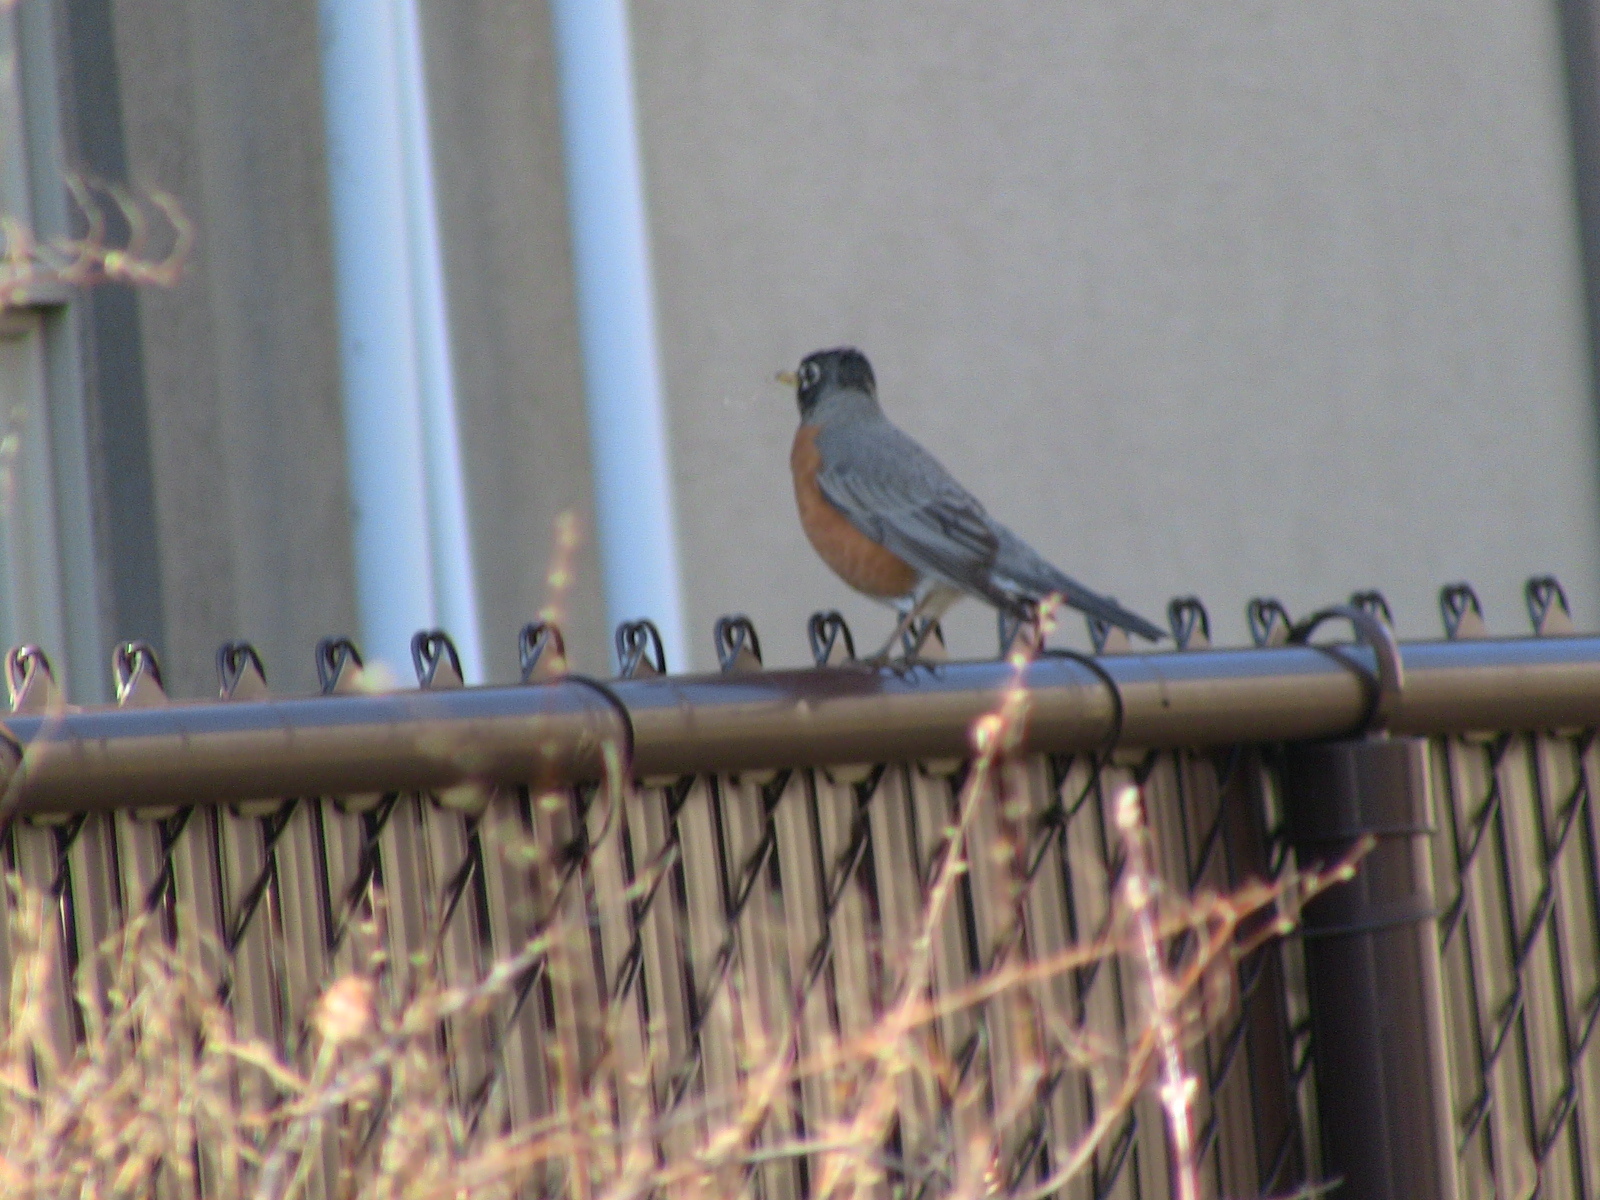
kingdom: Animalia
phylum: Chordata
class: Aves
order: Passeriformes
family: Turdidae
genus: Turdus
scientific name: Turdus migratorius
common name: American robin
